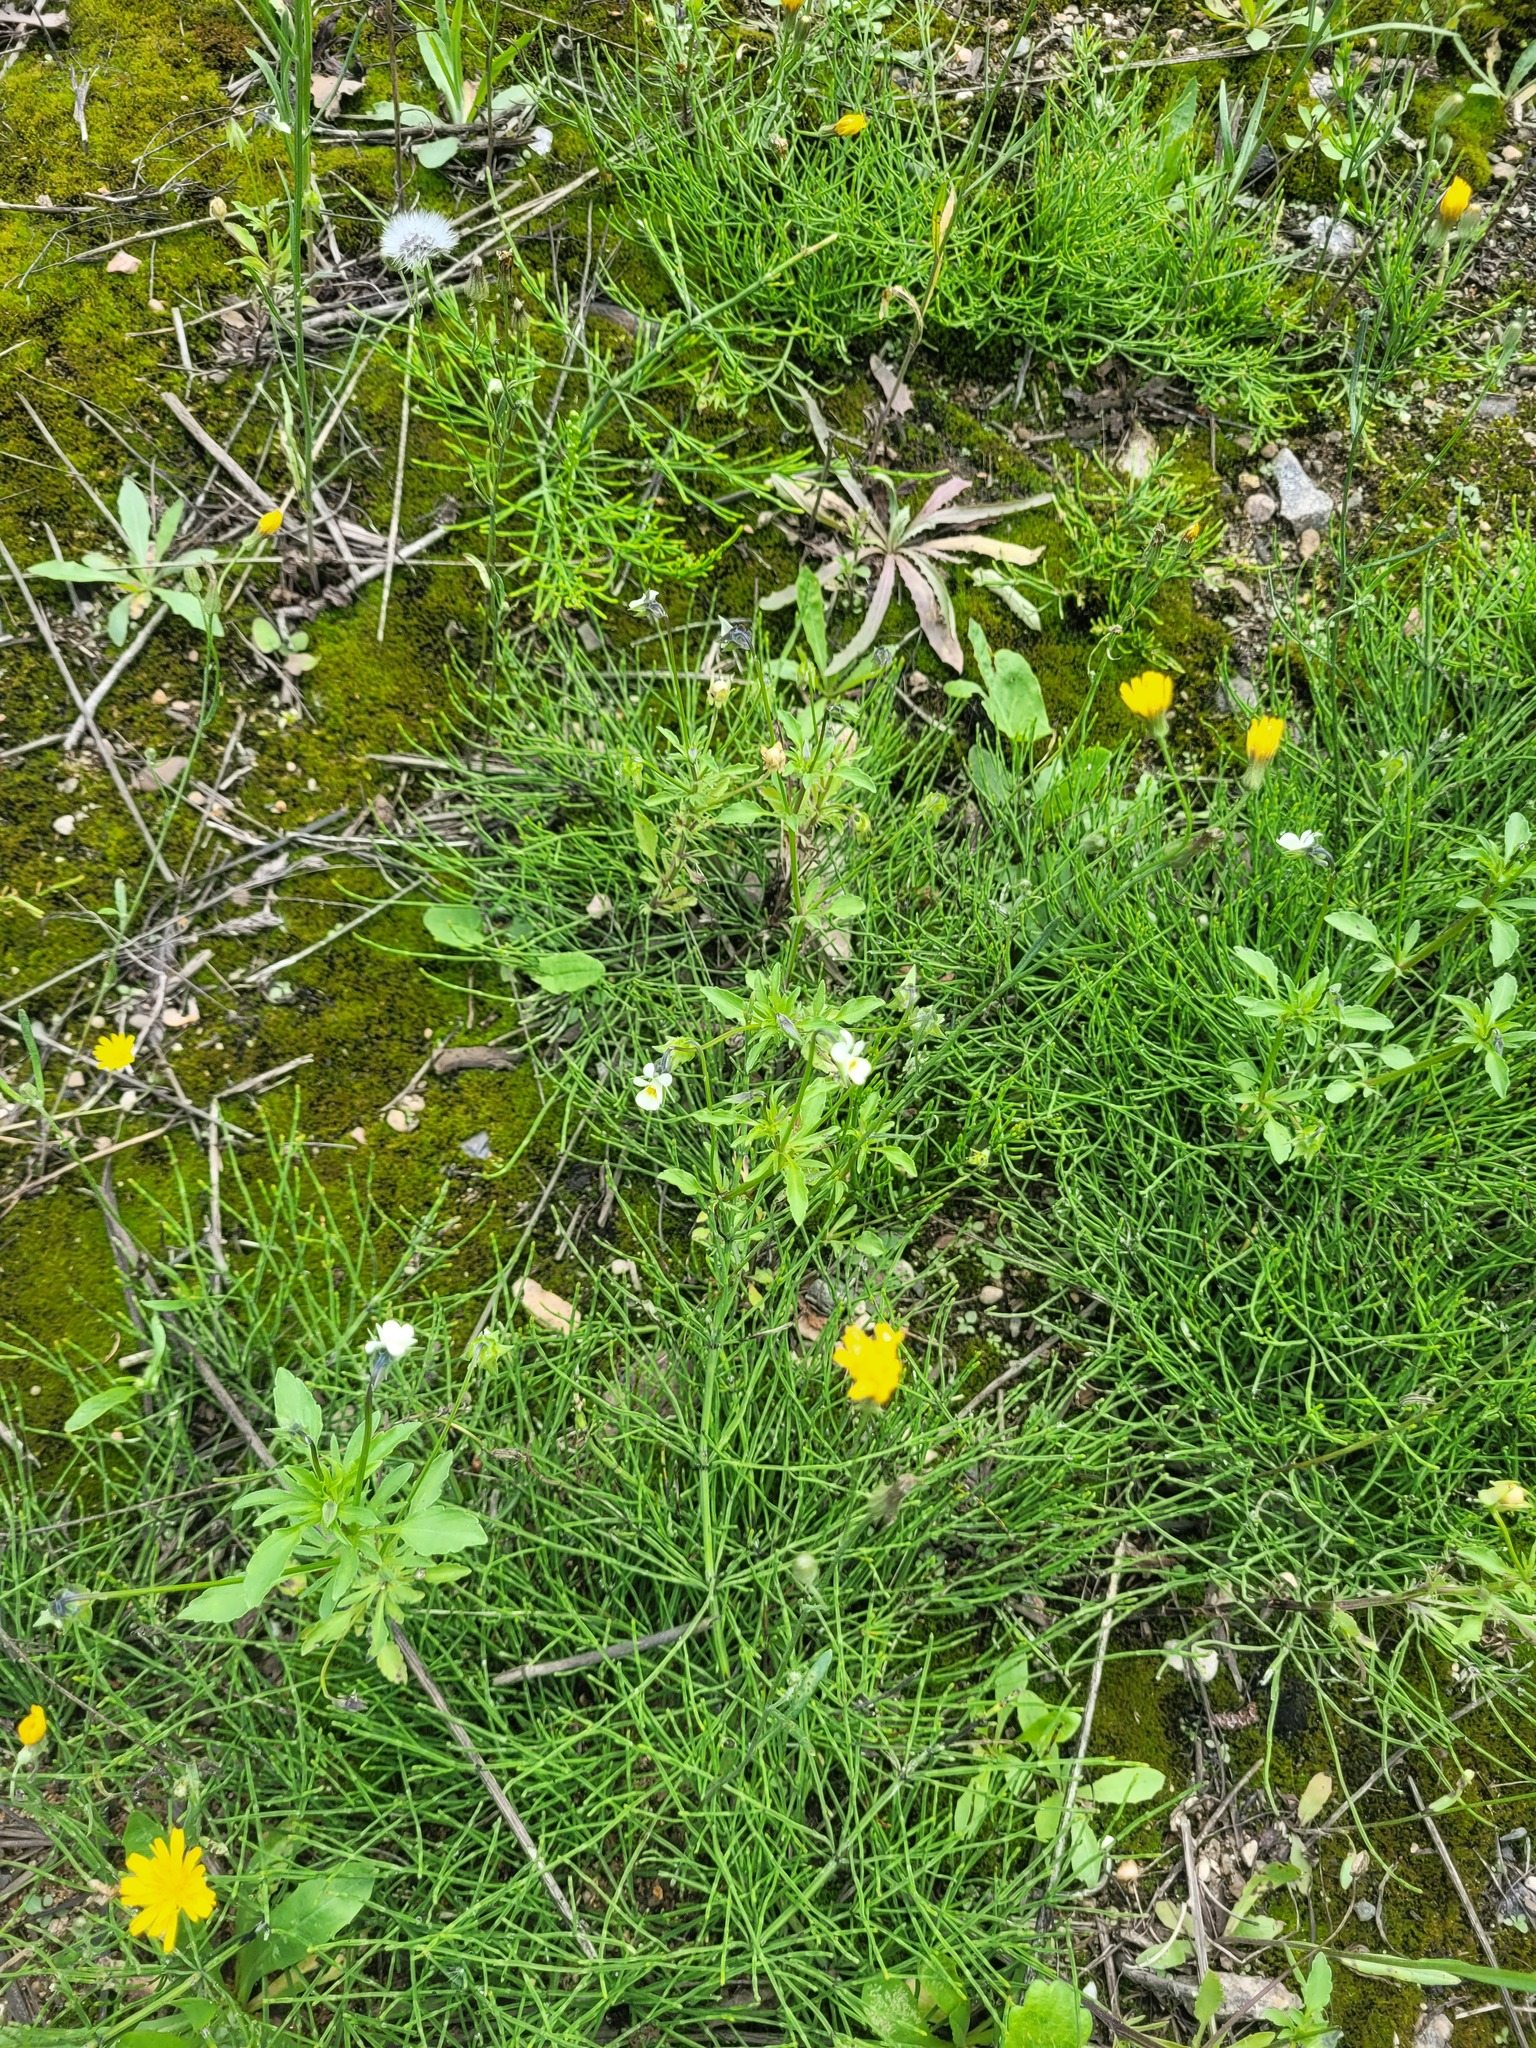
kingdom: Plantae
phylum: Tracheophyta
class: Magnoliopsida
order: Malpighiales
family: Violaceae
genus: Viola
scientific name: Viola arvensis
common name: Field pansy
